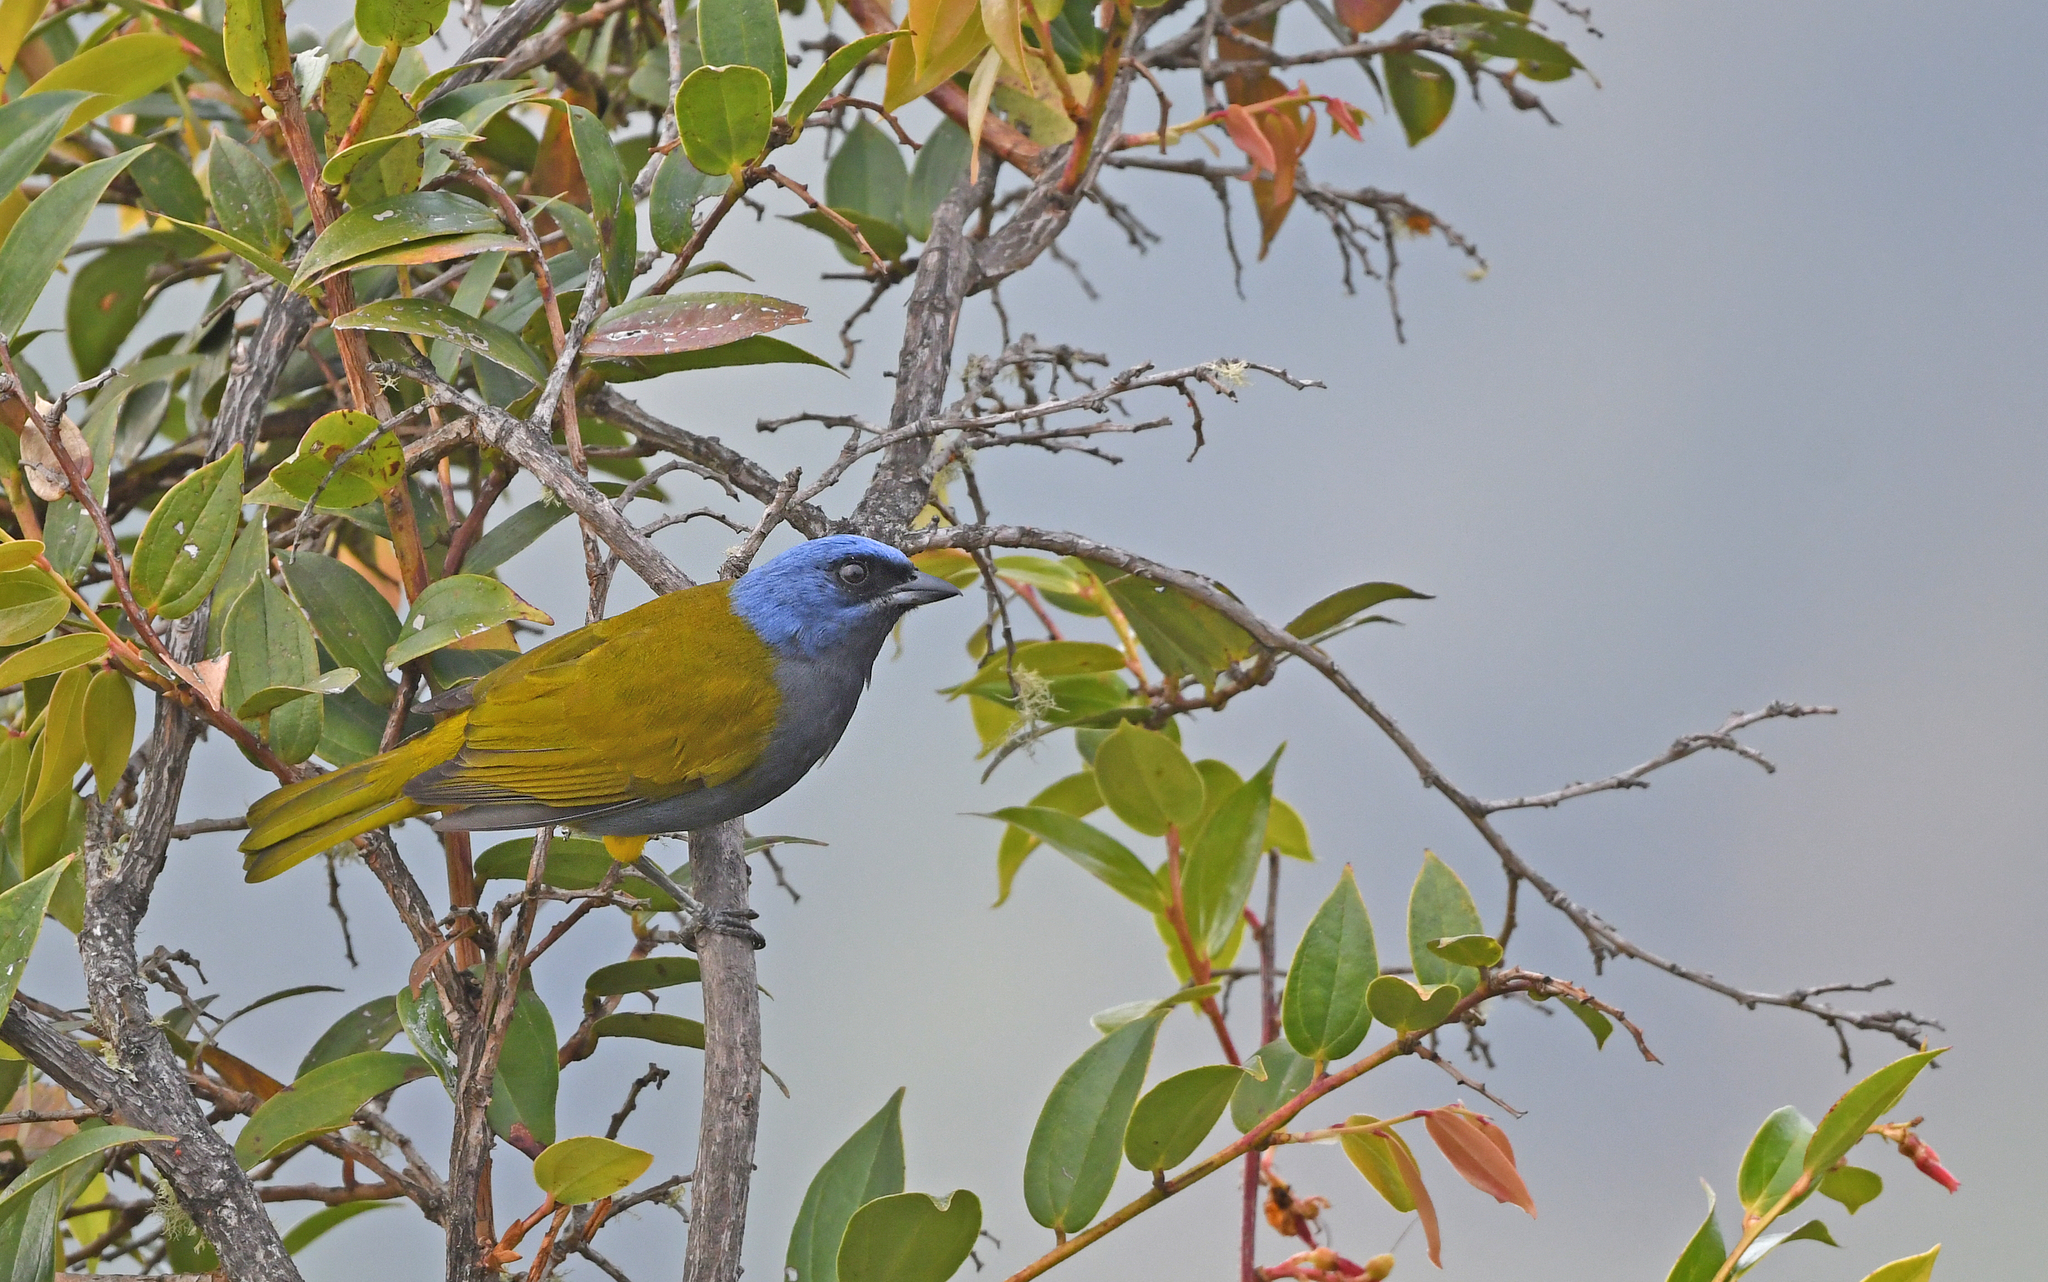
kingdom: Animalia
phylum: Chordata
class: Aves
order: Passeriformes
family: Thraupidae
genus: Sporathraupis
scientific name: Sporathraupis cyanocephala
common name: Blue-capped tanager
